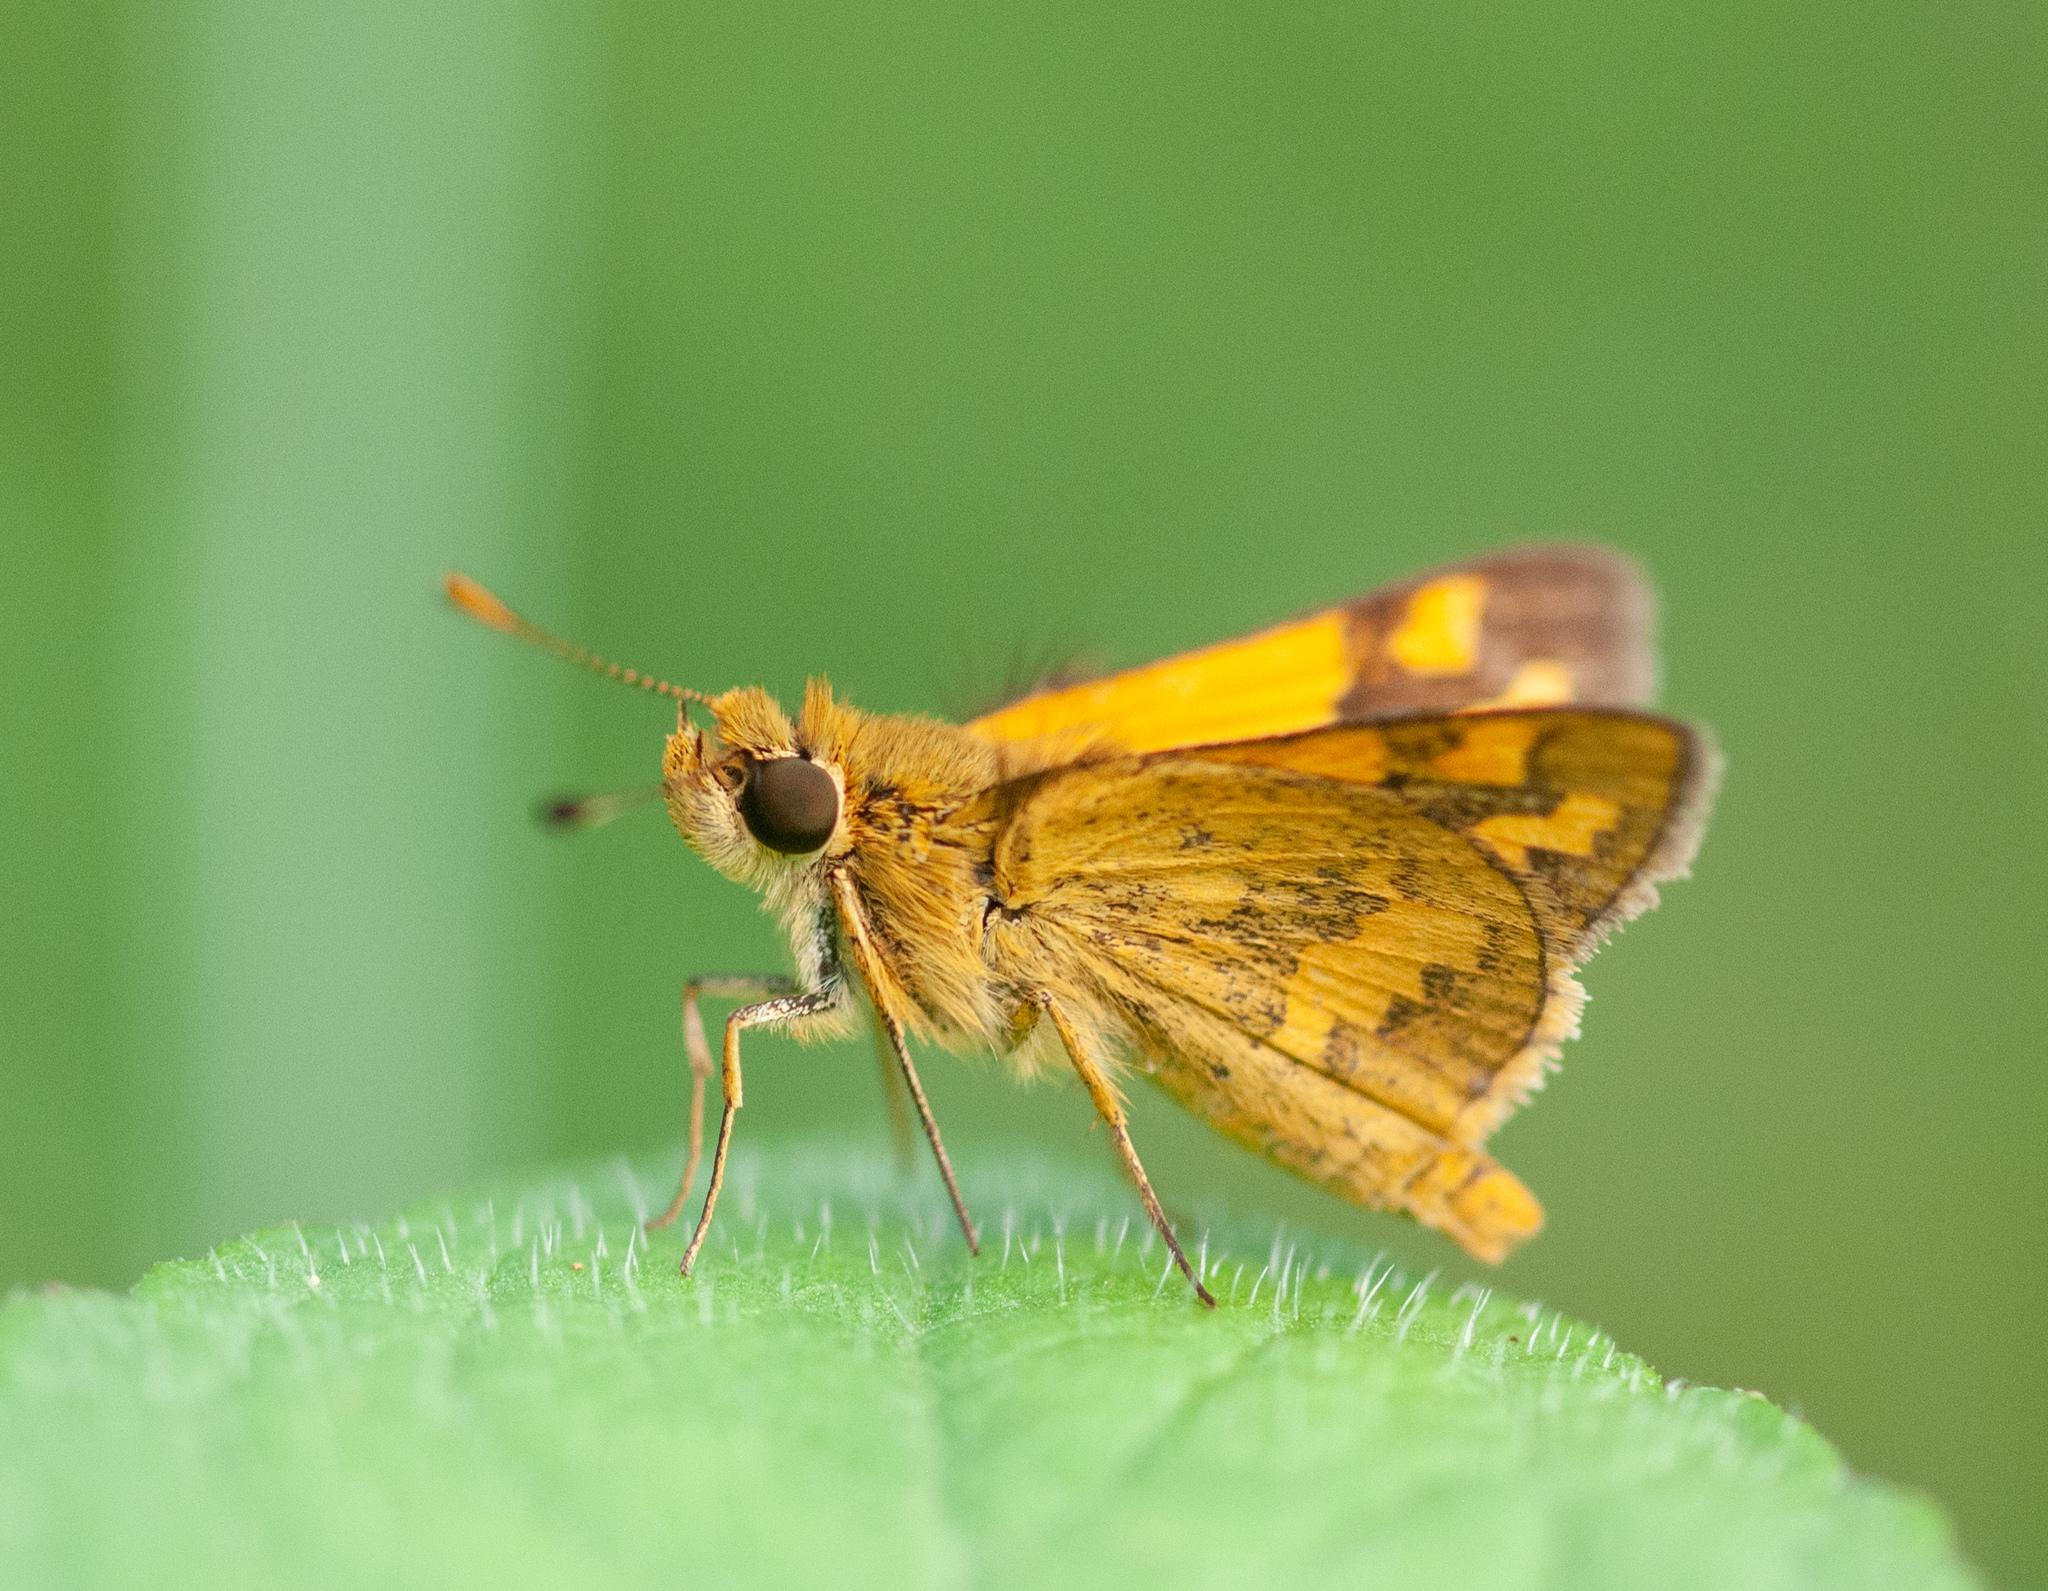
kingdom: Animalia
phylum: Arthropoda
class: Insecta
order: Lepidoptera
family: Hesperiidae
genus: Ocybadistes
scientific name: Ocybadistes flavovittata
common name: Narrow-brand grass-dart
